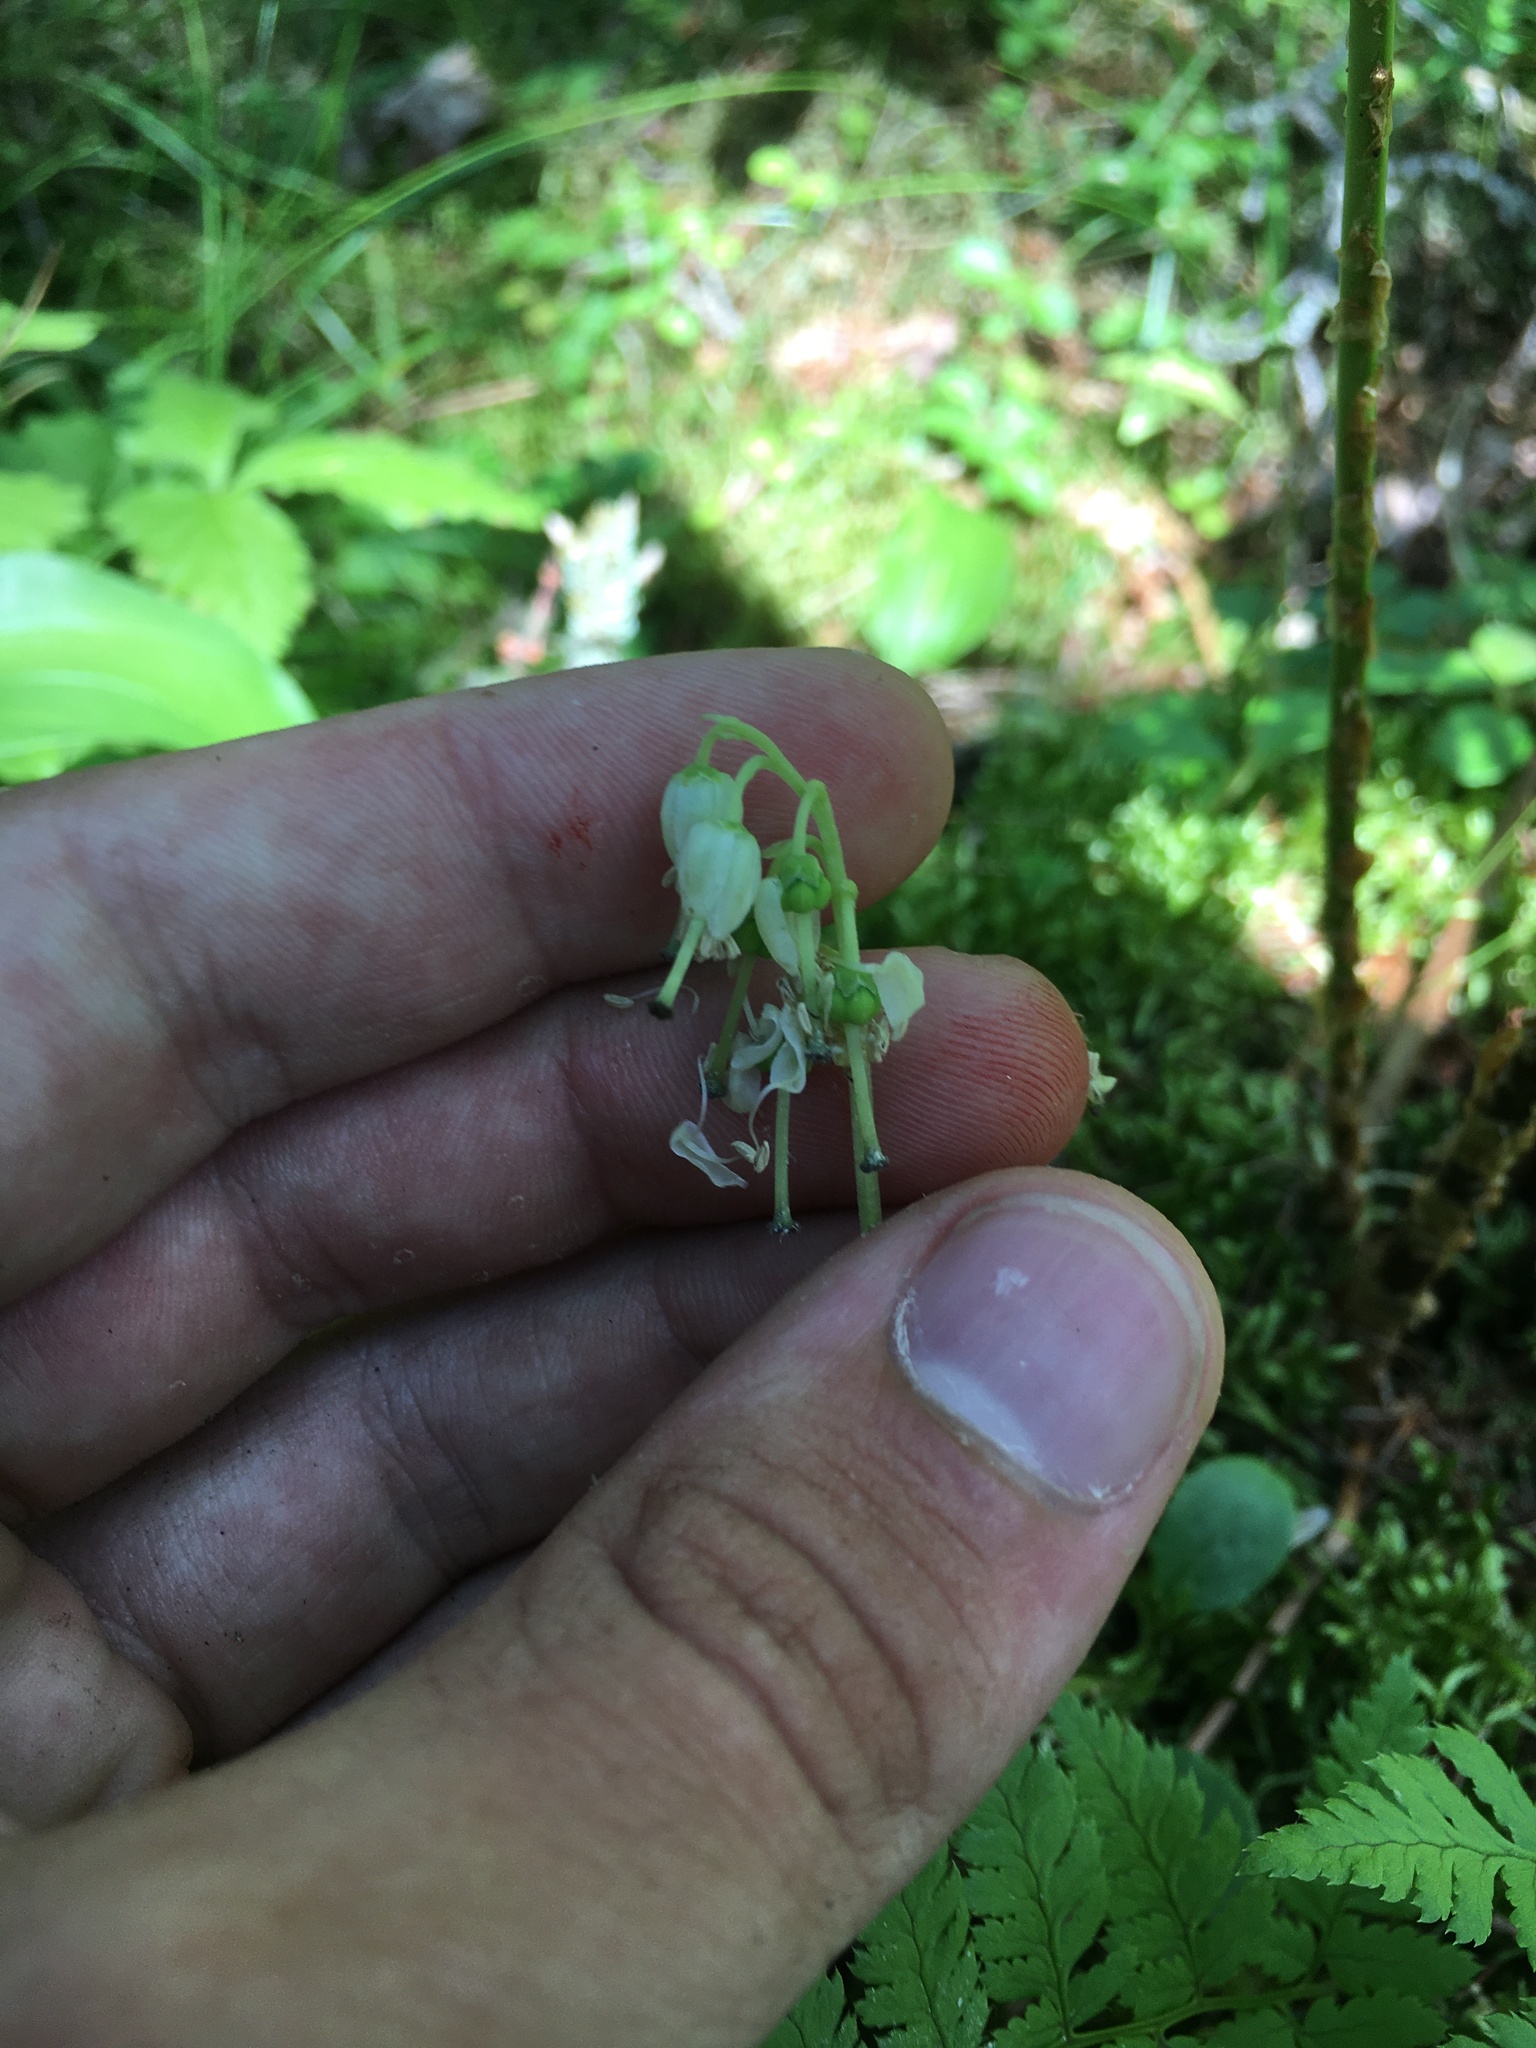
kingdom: Plantae
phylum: Tracheophyta
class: Magnoliopsida
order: Ericales
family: Ericaceae
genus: Orthilia
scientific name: Orthilia secunda
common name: One-sided orthilia
